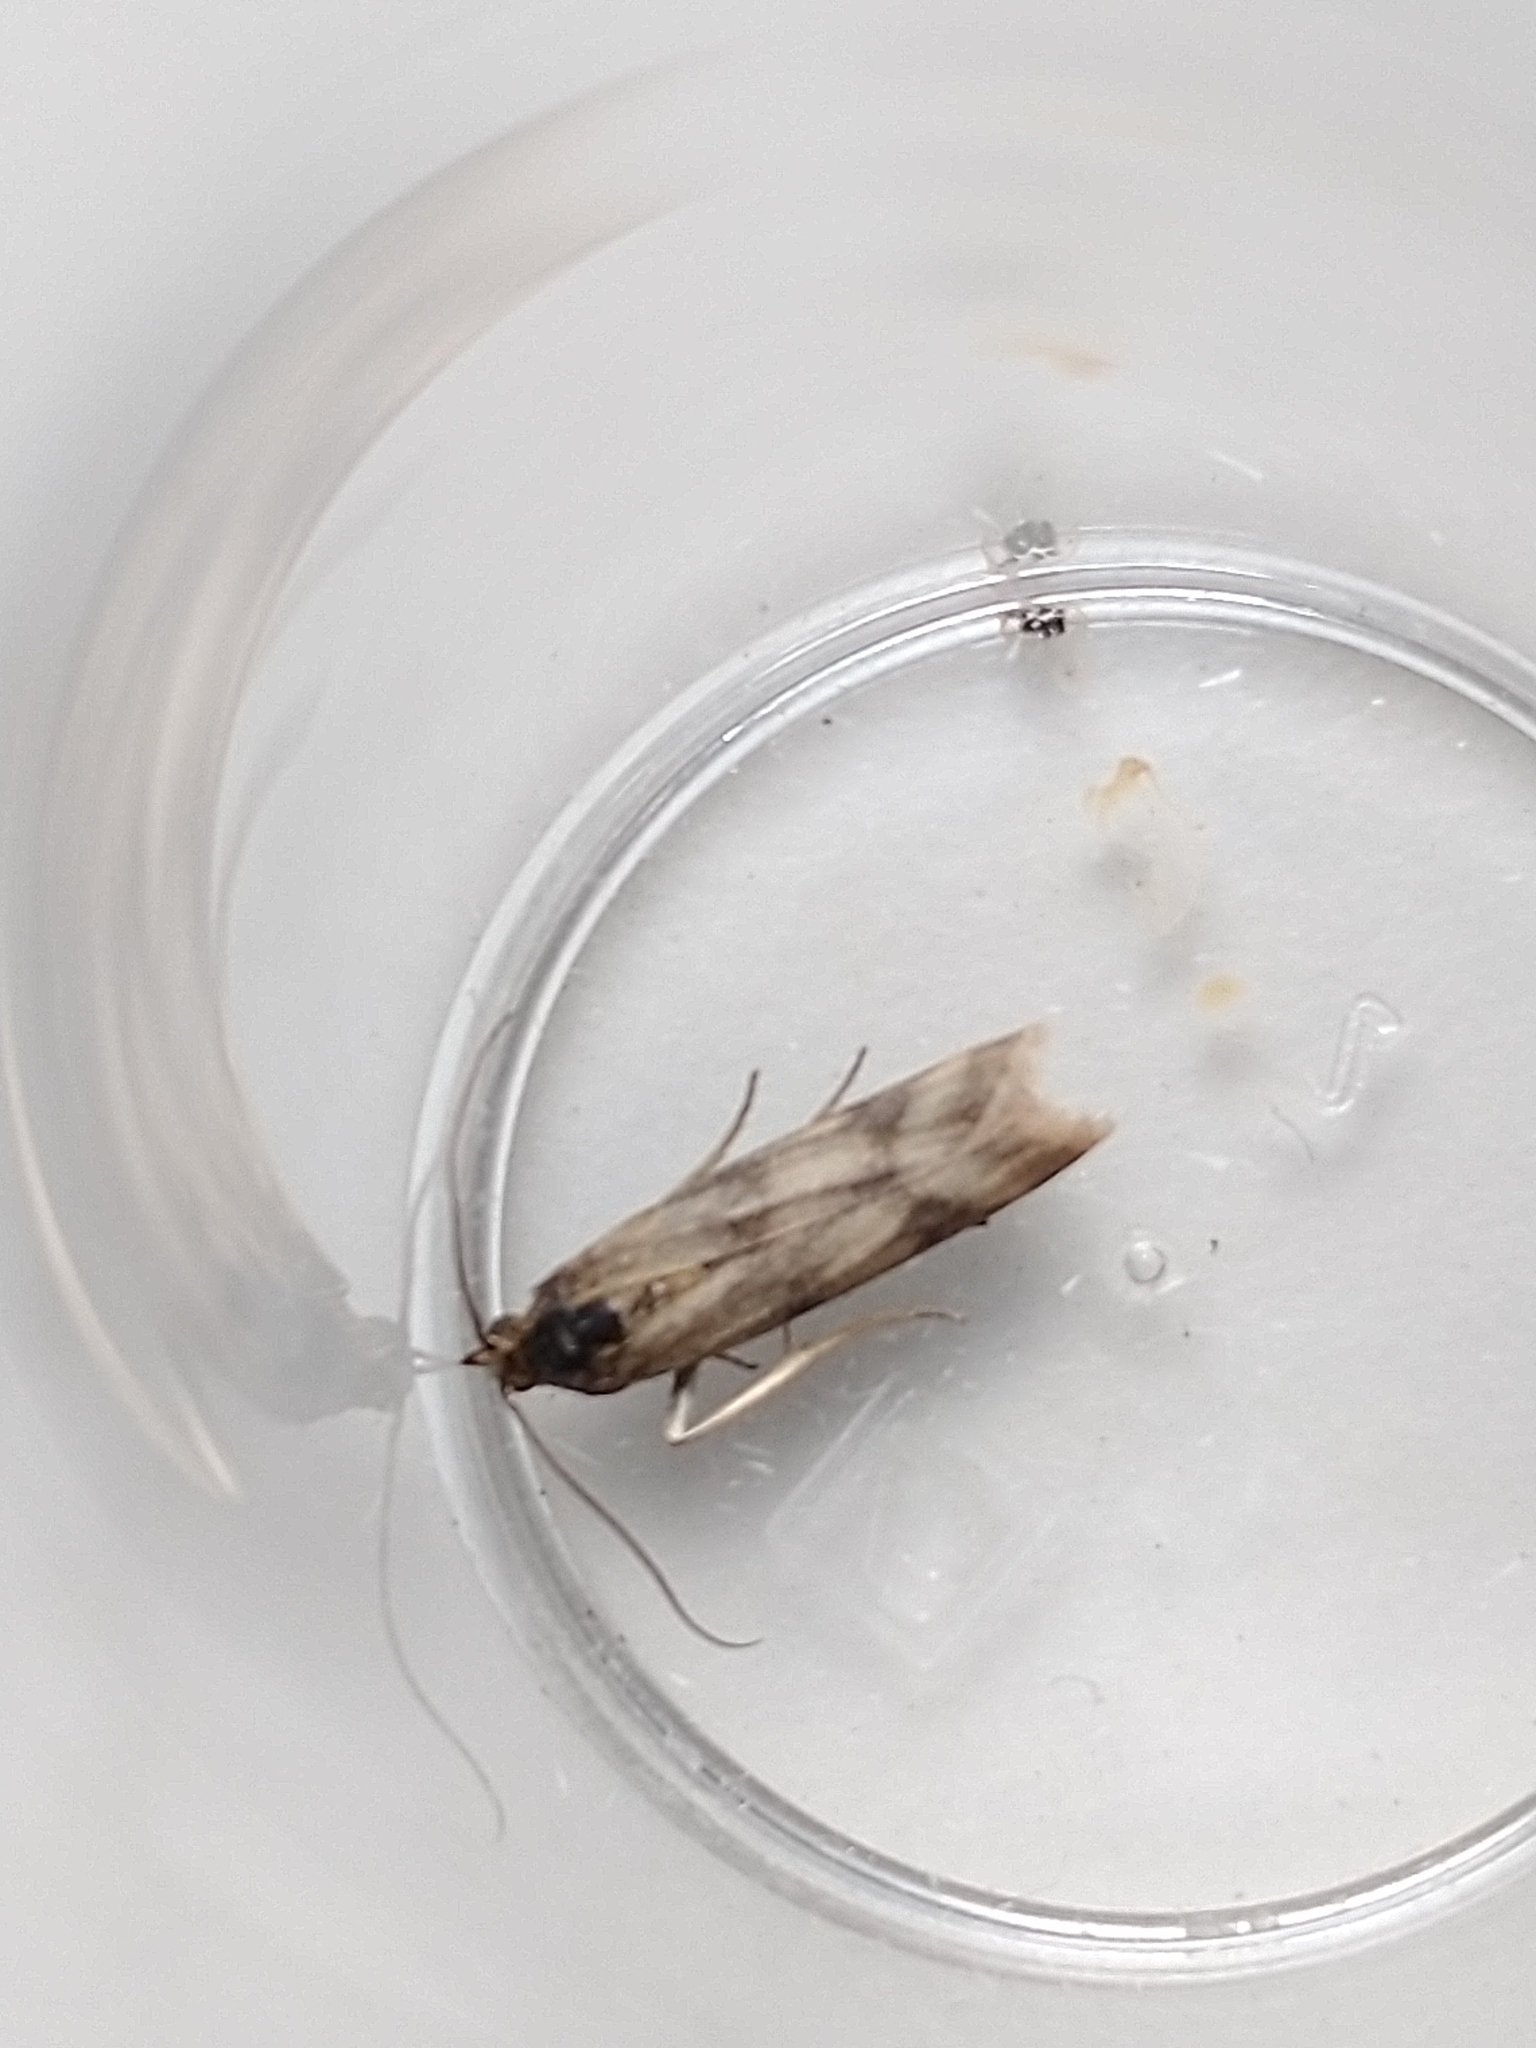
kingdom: Animalia
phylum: Arthropoda
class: Insecta
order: Lepidoptera
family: Pyralidae
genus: Homoeosoma
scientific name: Homoeosoma sinuella
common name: Twin-barred knot-horn
